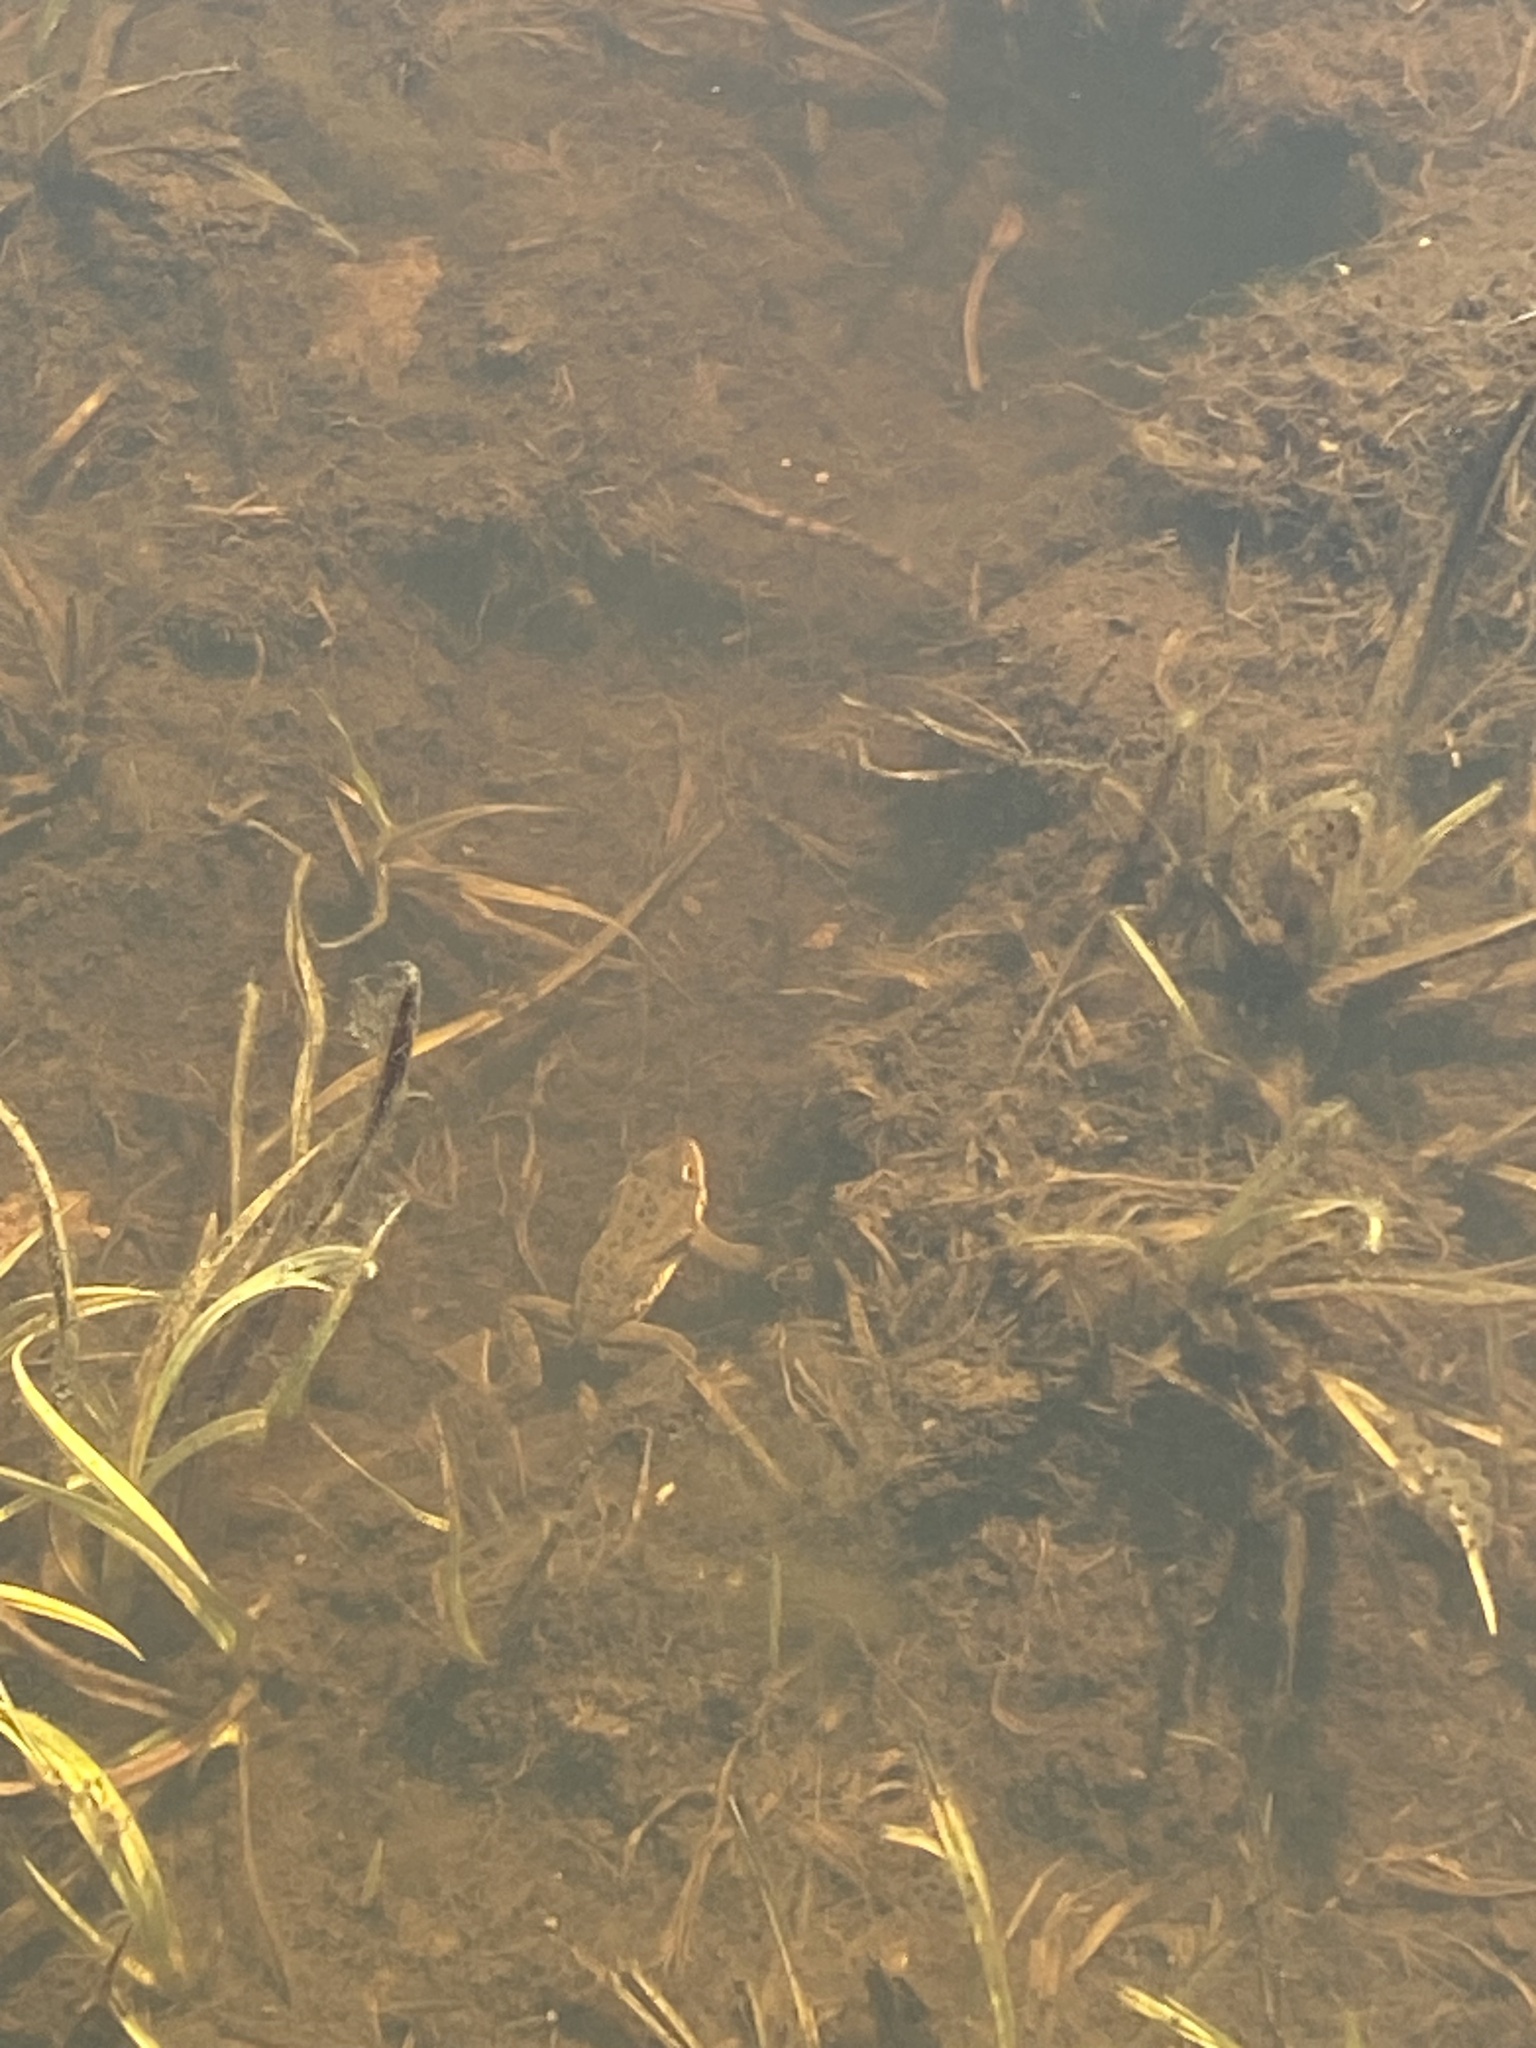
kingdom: Animalia
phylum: Chordata
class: Amphibia
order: Anura
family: Ranidae
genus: Rana
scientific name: Rana luteiventris
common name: Columbia spotted frog
